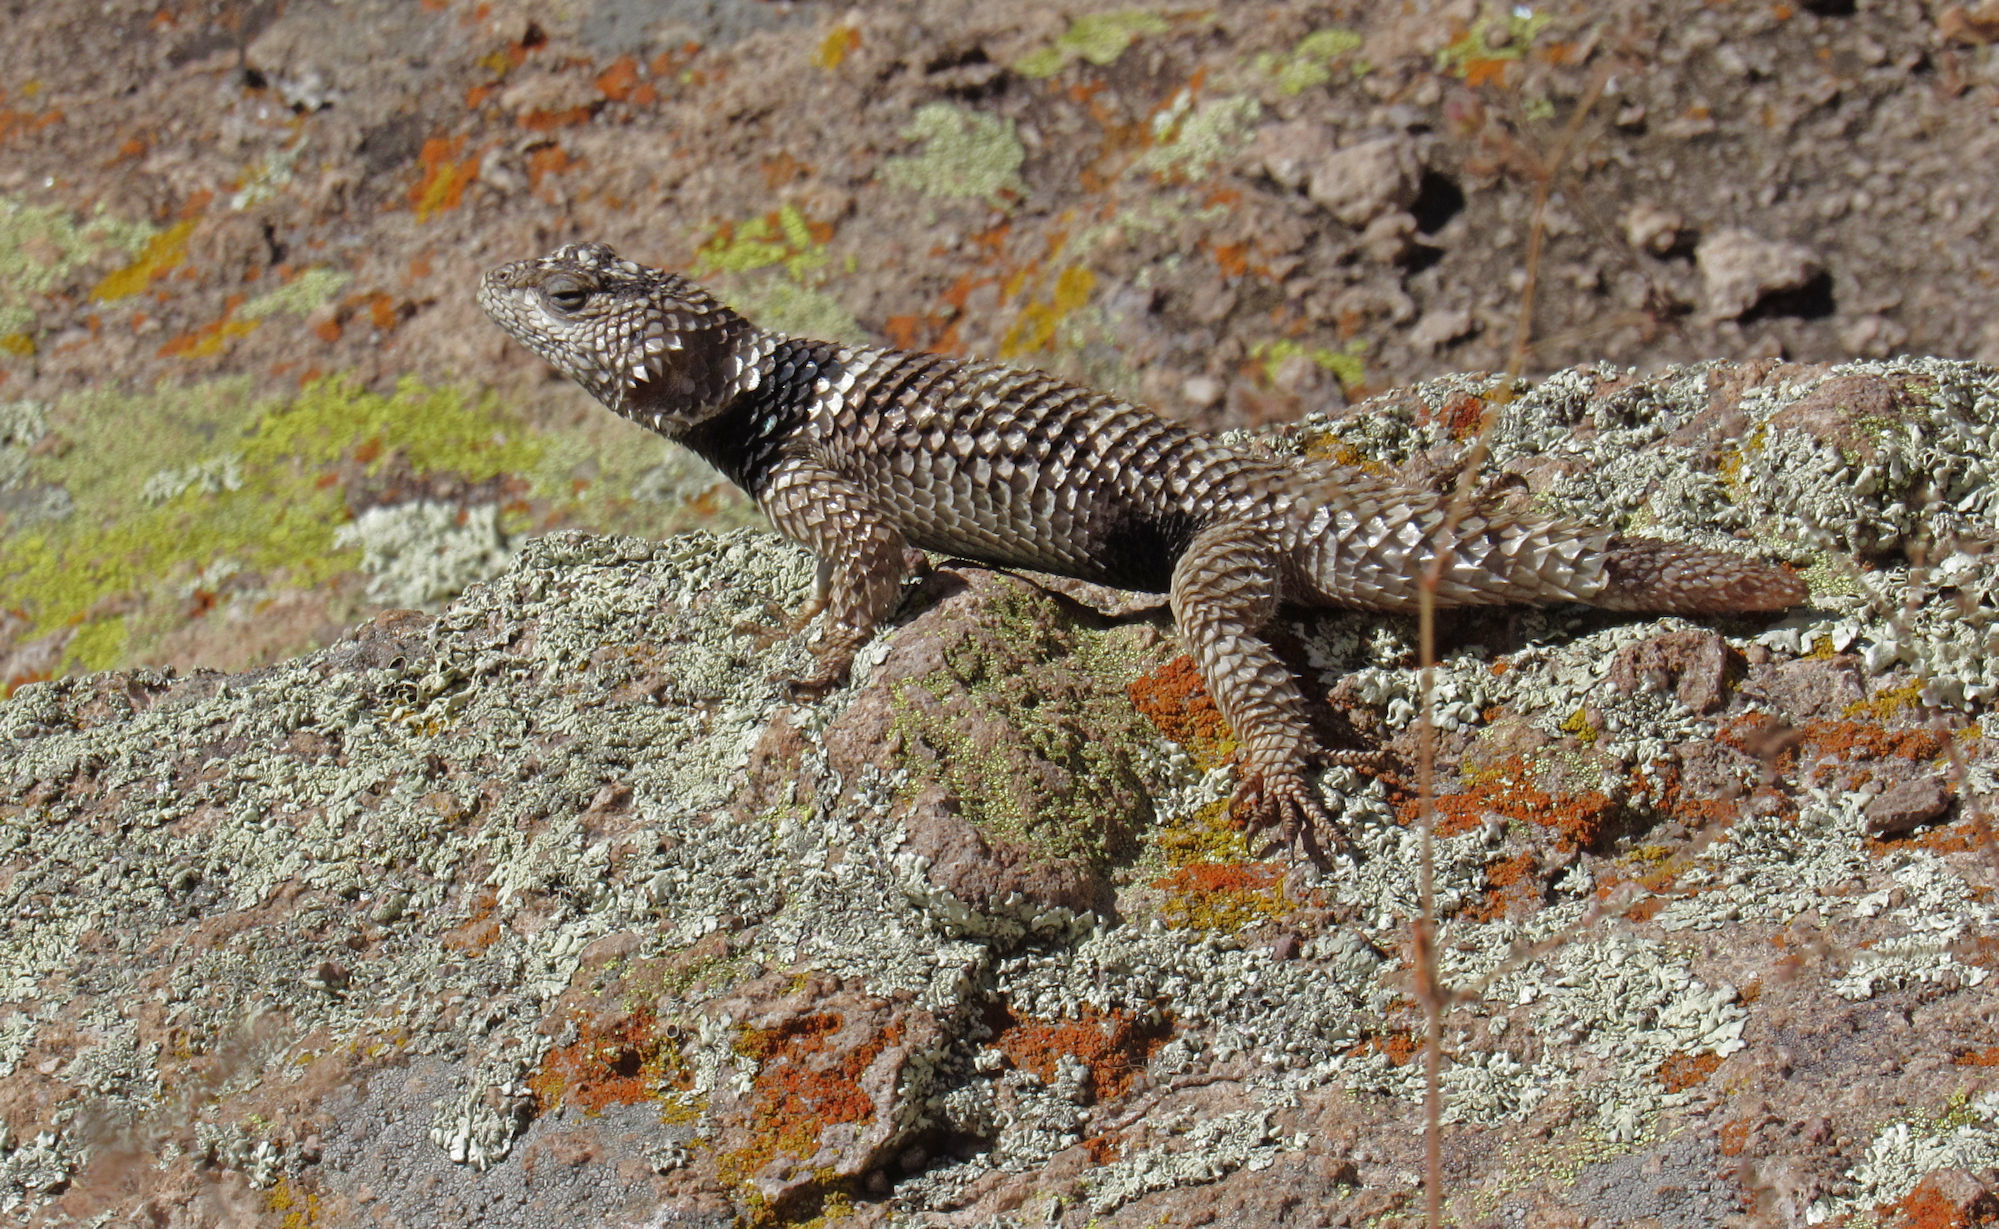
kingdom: Animalia
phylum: Chordata
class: Squamata
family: Phrynosomatidae
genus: Sceloporus
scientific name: Sceloporus poinsettii
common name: Crevice spiny lizard
